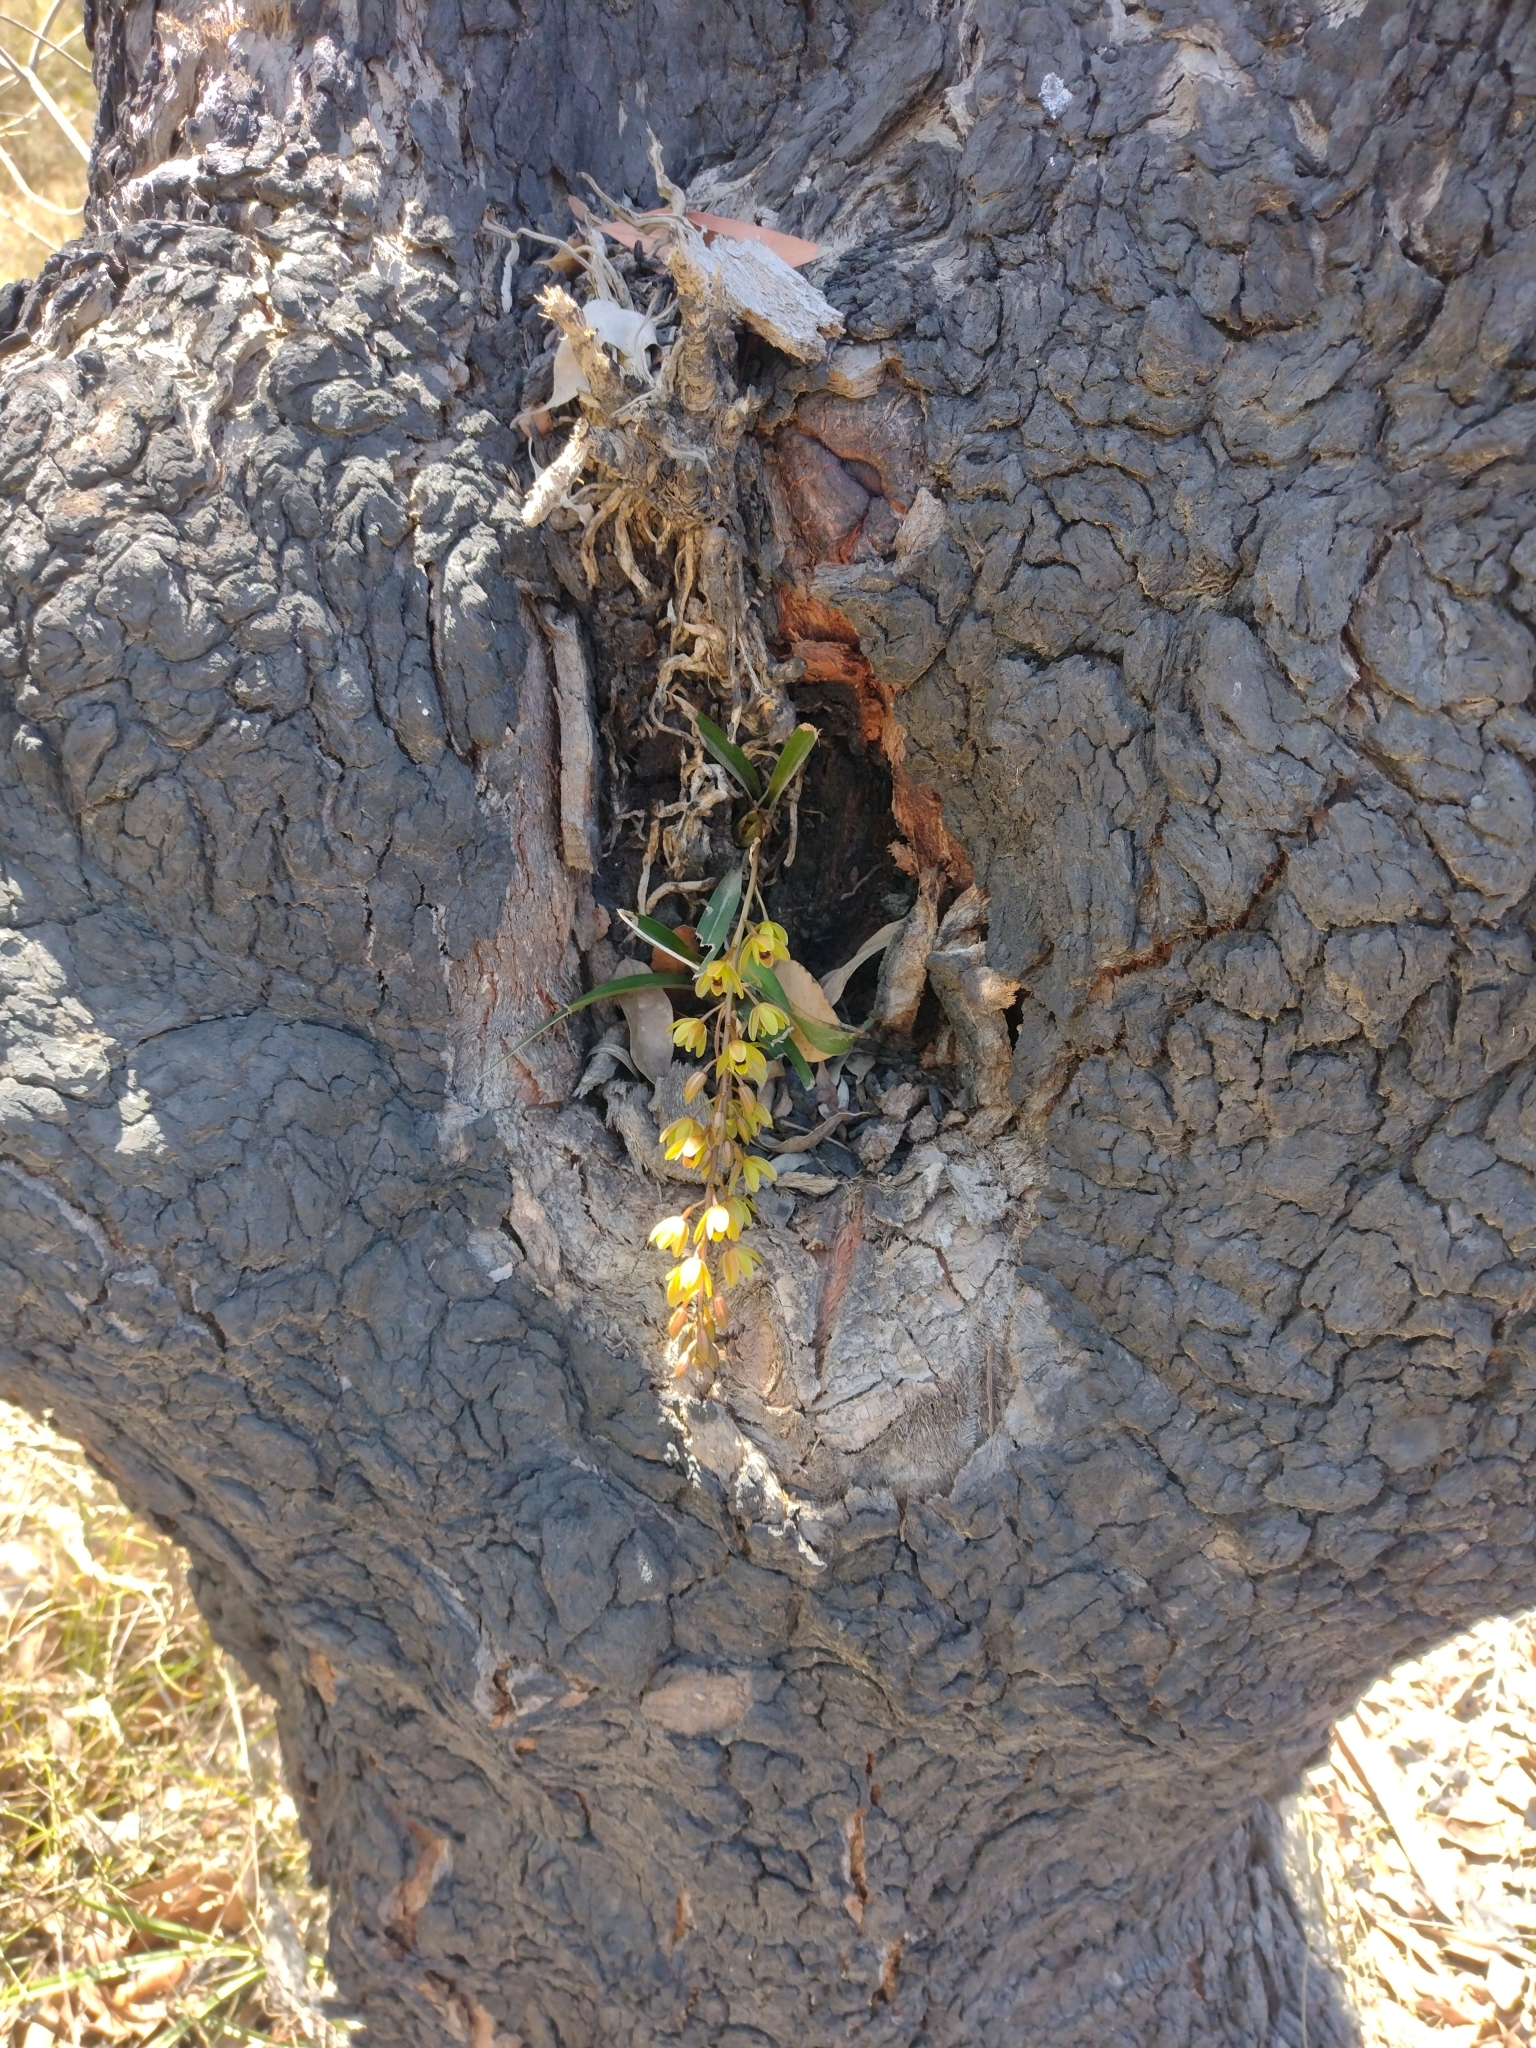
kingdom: Plantae
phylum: Tracheophyta
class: Liliopsida
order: Asparagales
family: Orchidaceae
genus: Cymbidium
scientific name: Cymbidium suave
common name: Snake orchid
